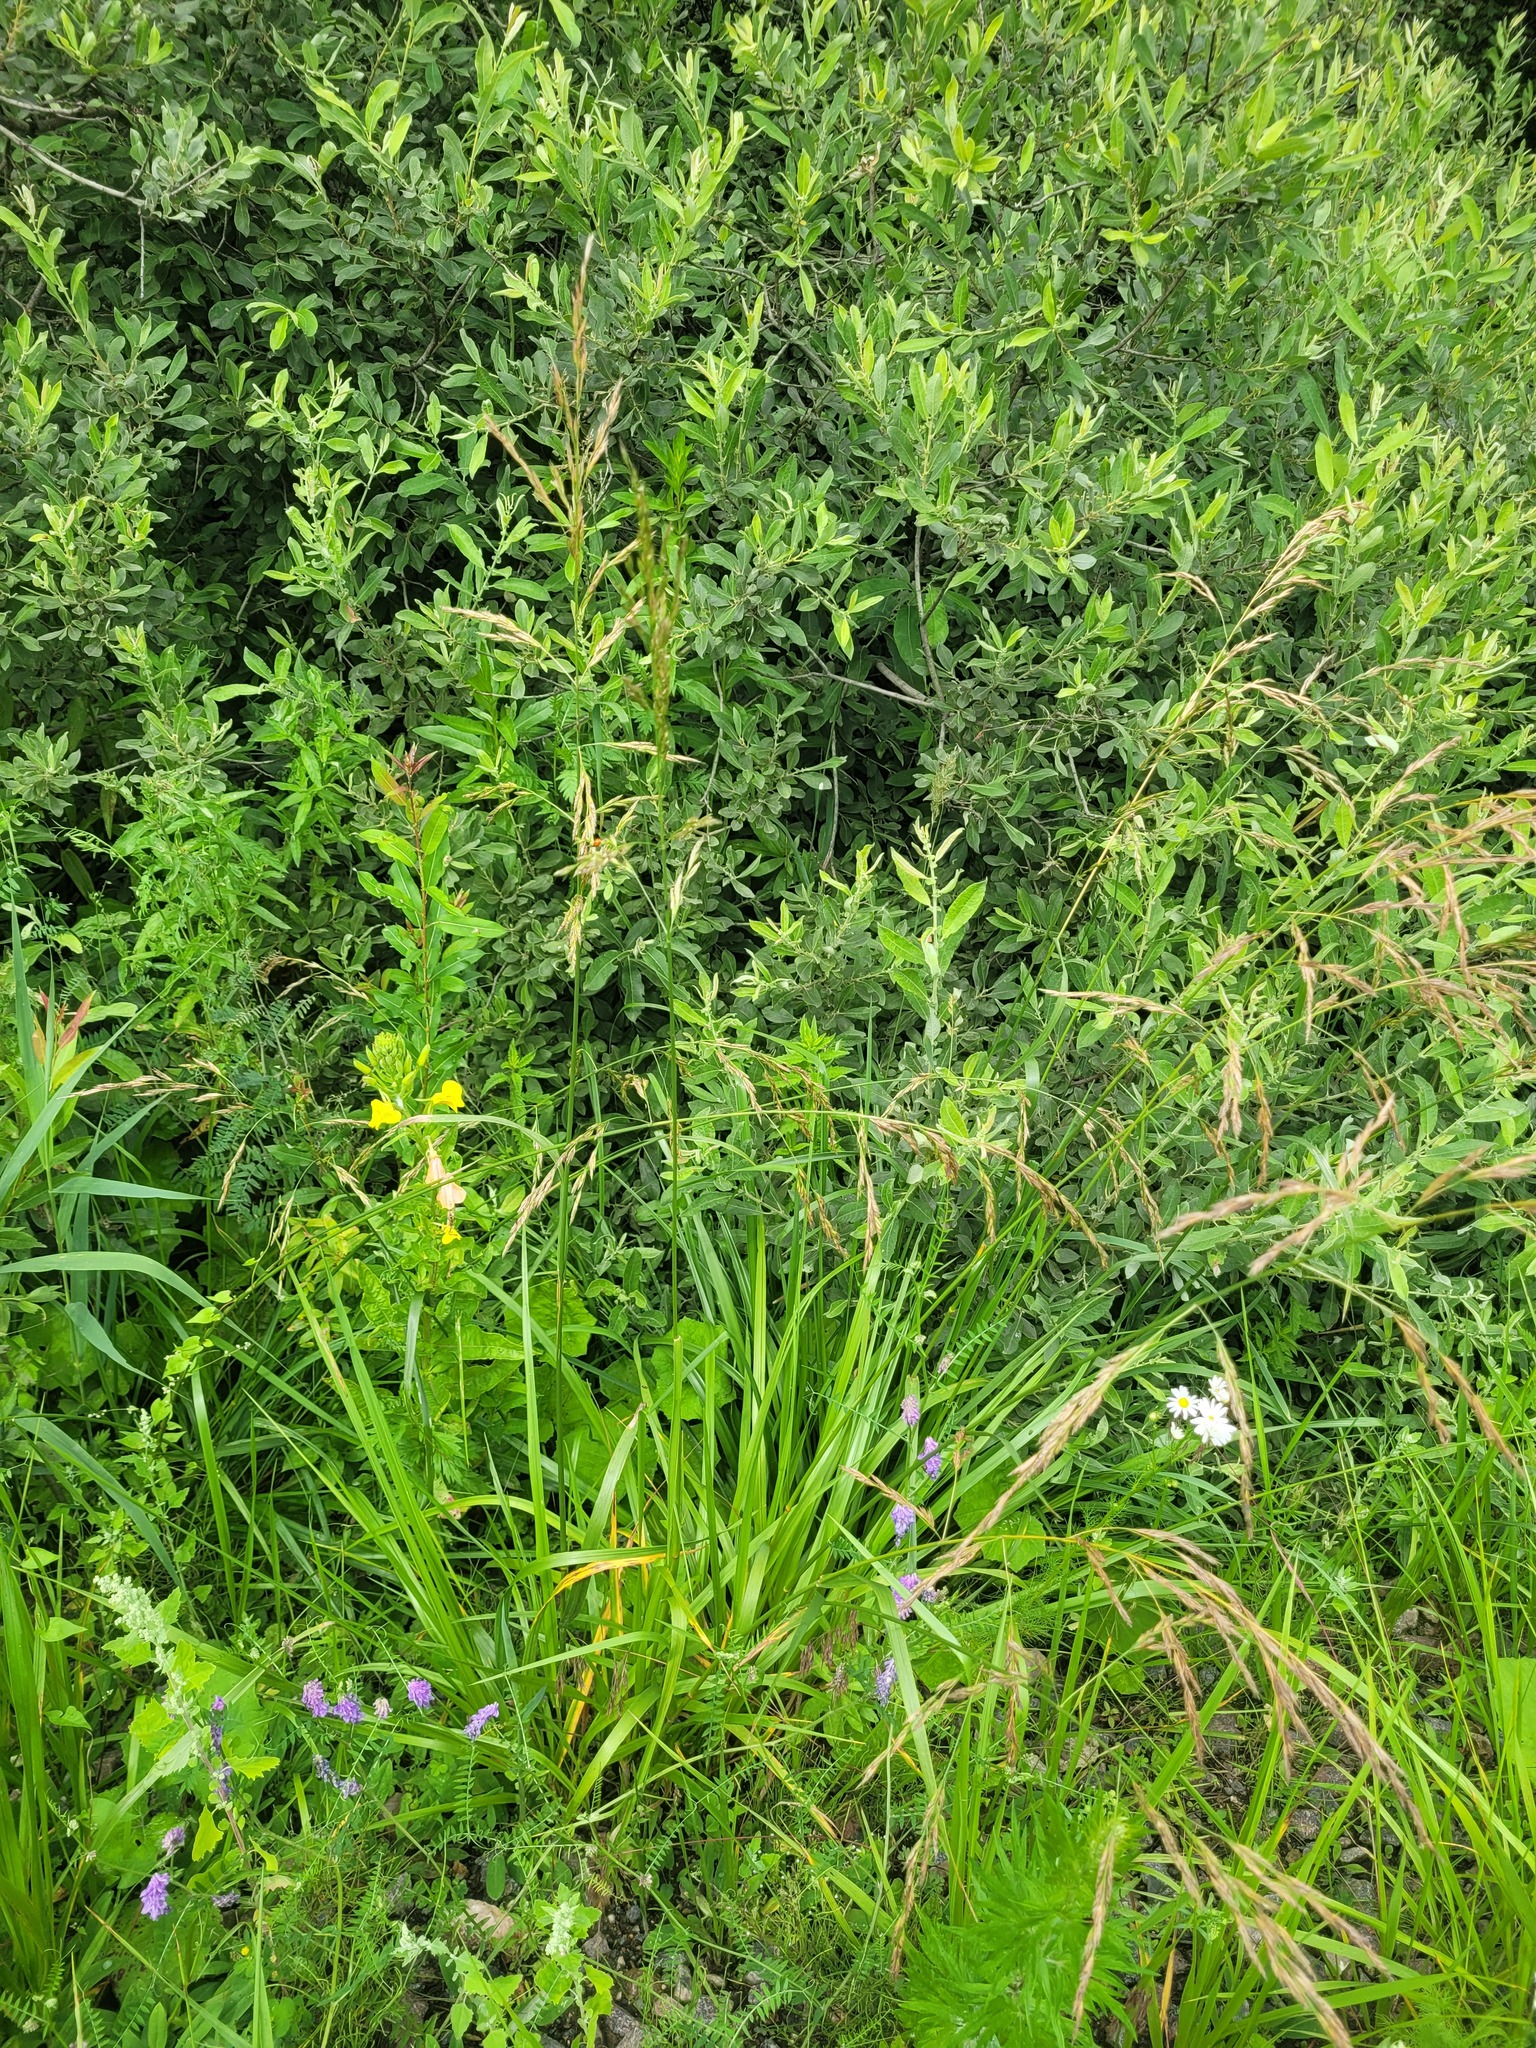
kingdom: Plantae
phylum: Tracheophyta
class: Liliopsida
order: Poales
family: Poaceae
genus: Lolium
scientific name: Lolium arundinaceum
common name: Reed fescue
